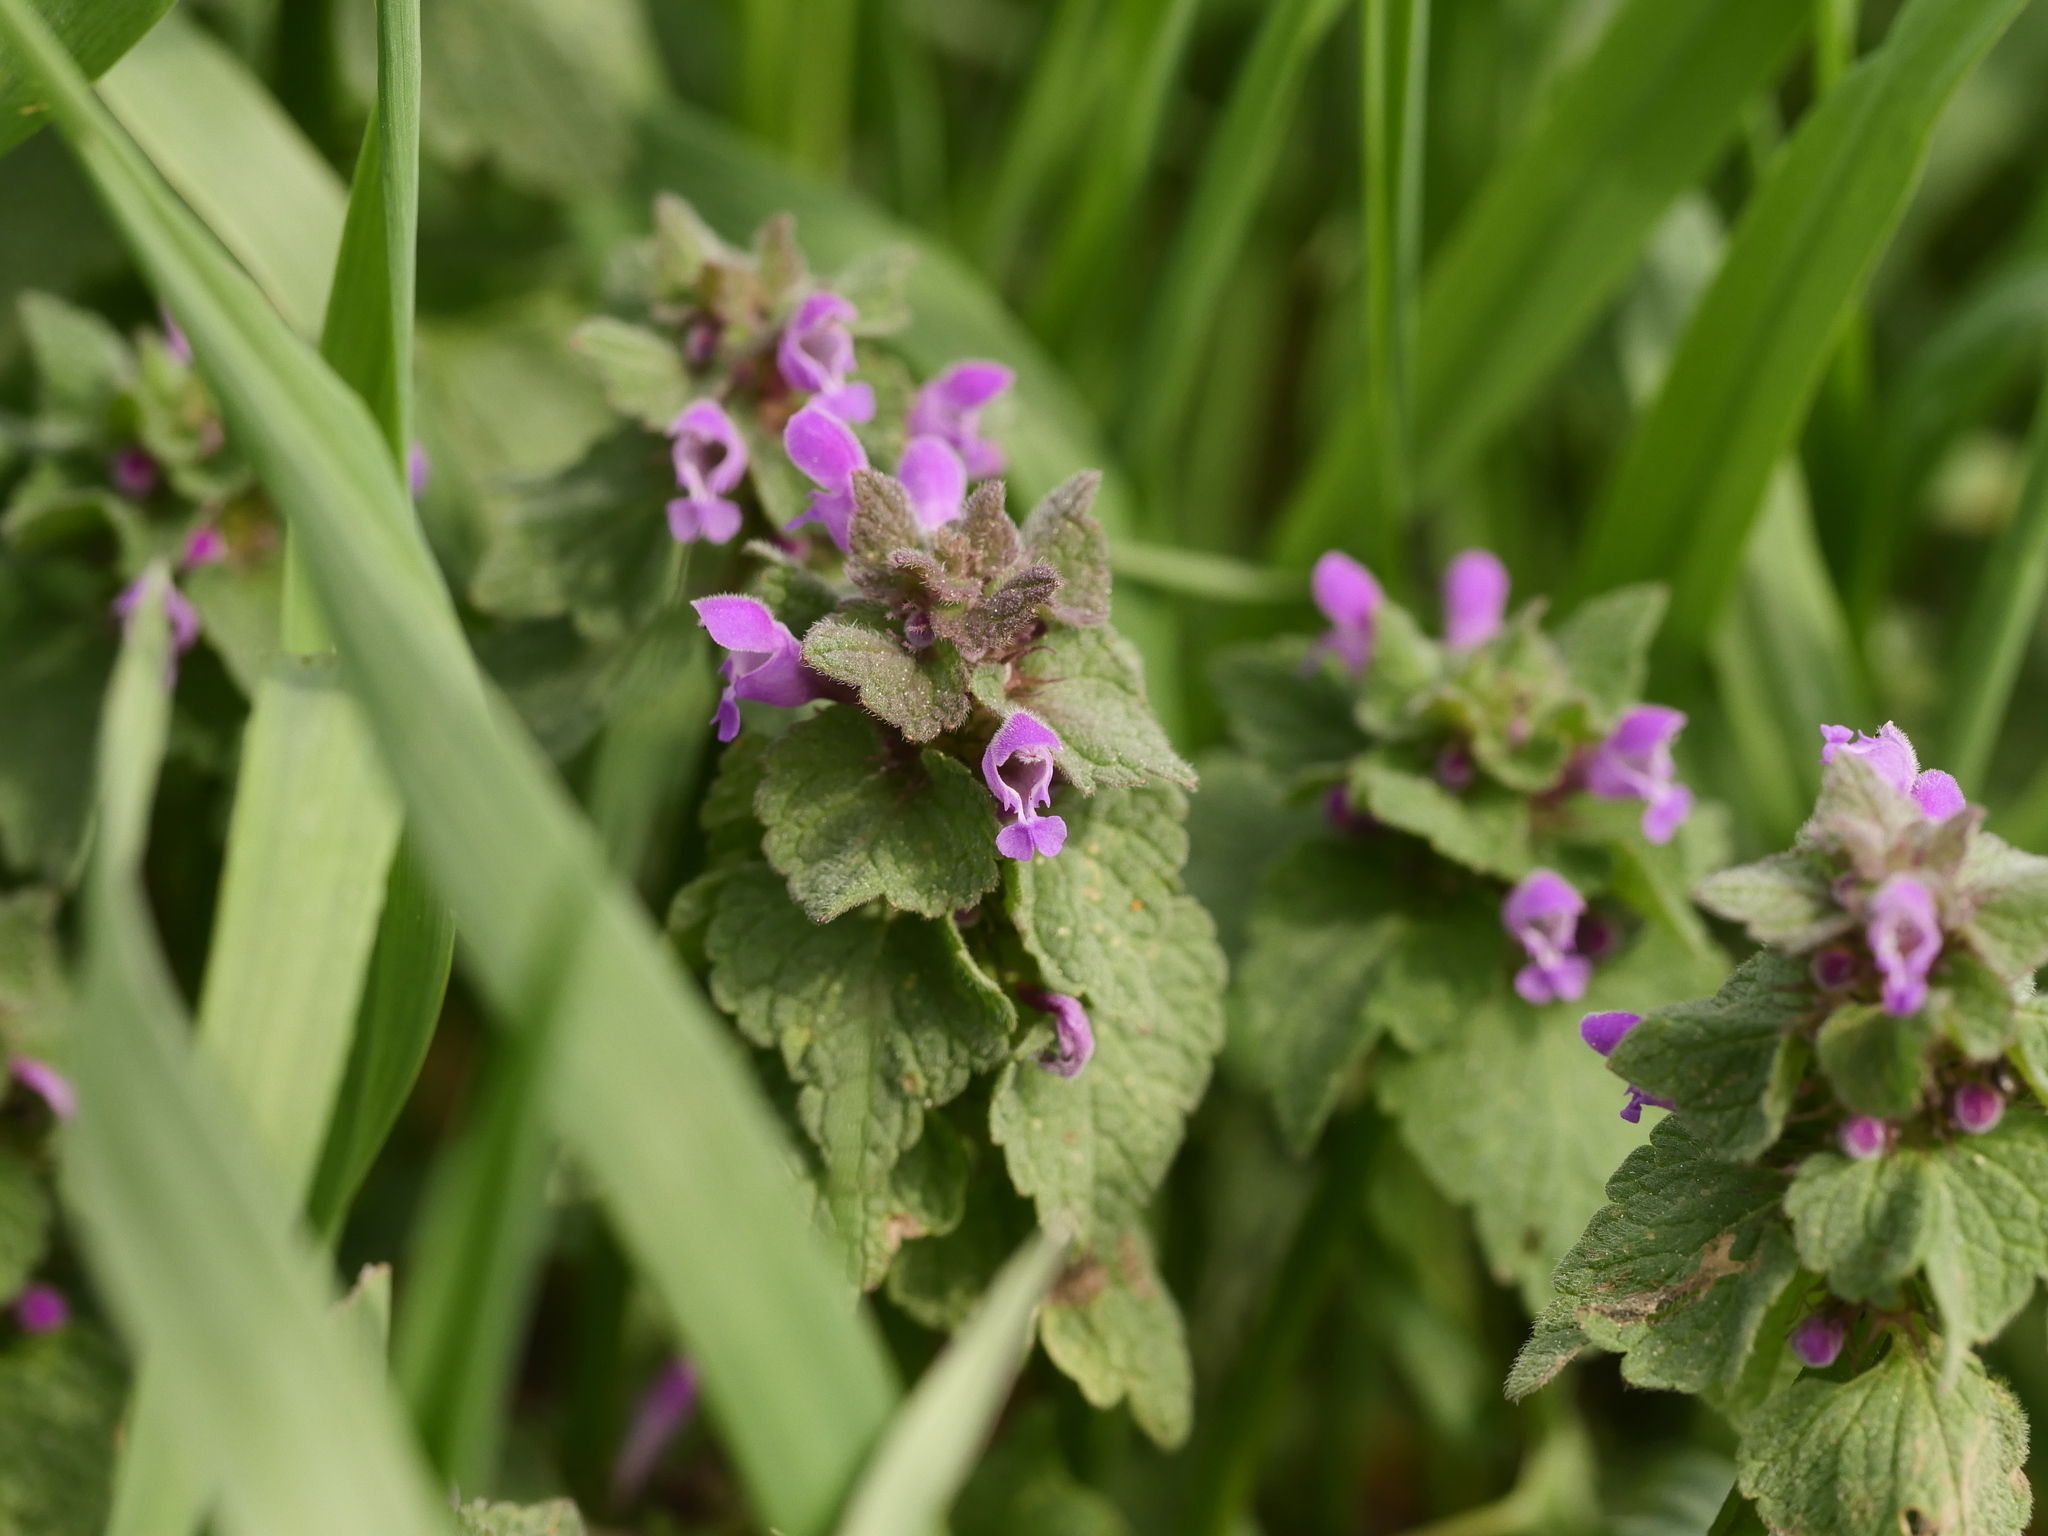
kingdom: Plantae
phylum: Tracheophyta
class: Magnoliopsida
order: Lamiales
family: Lamiaceae
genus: Lamium
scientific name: Lamium purpureum
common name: Red dead-nettle
